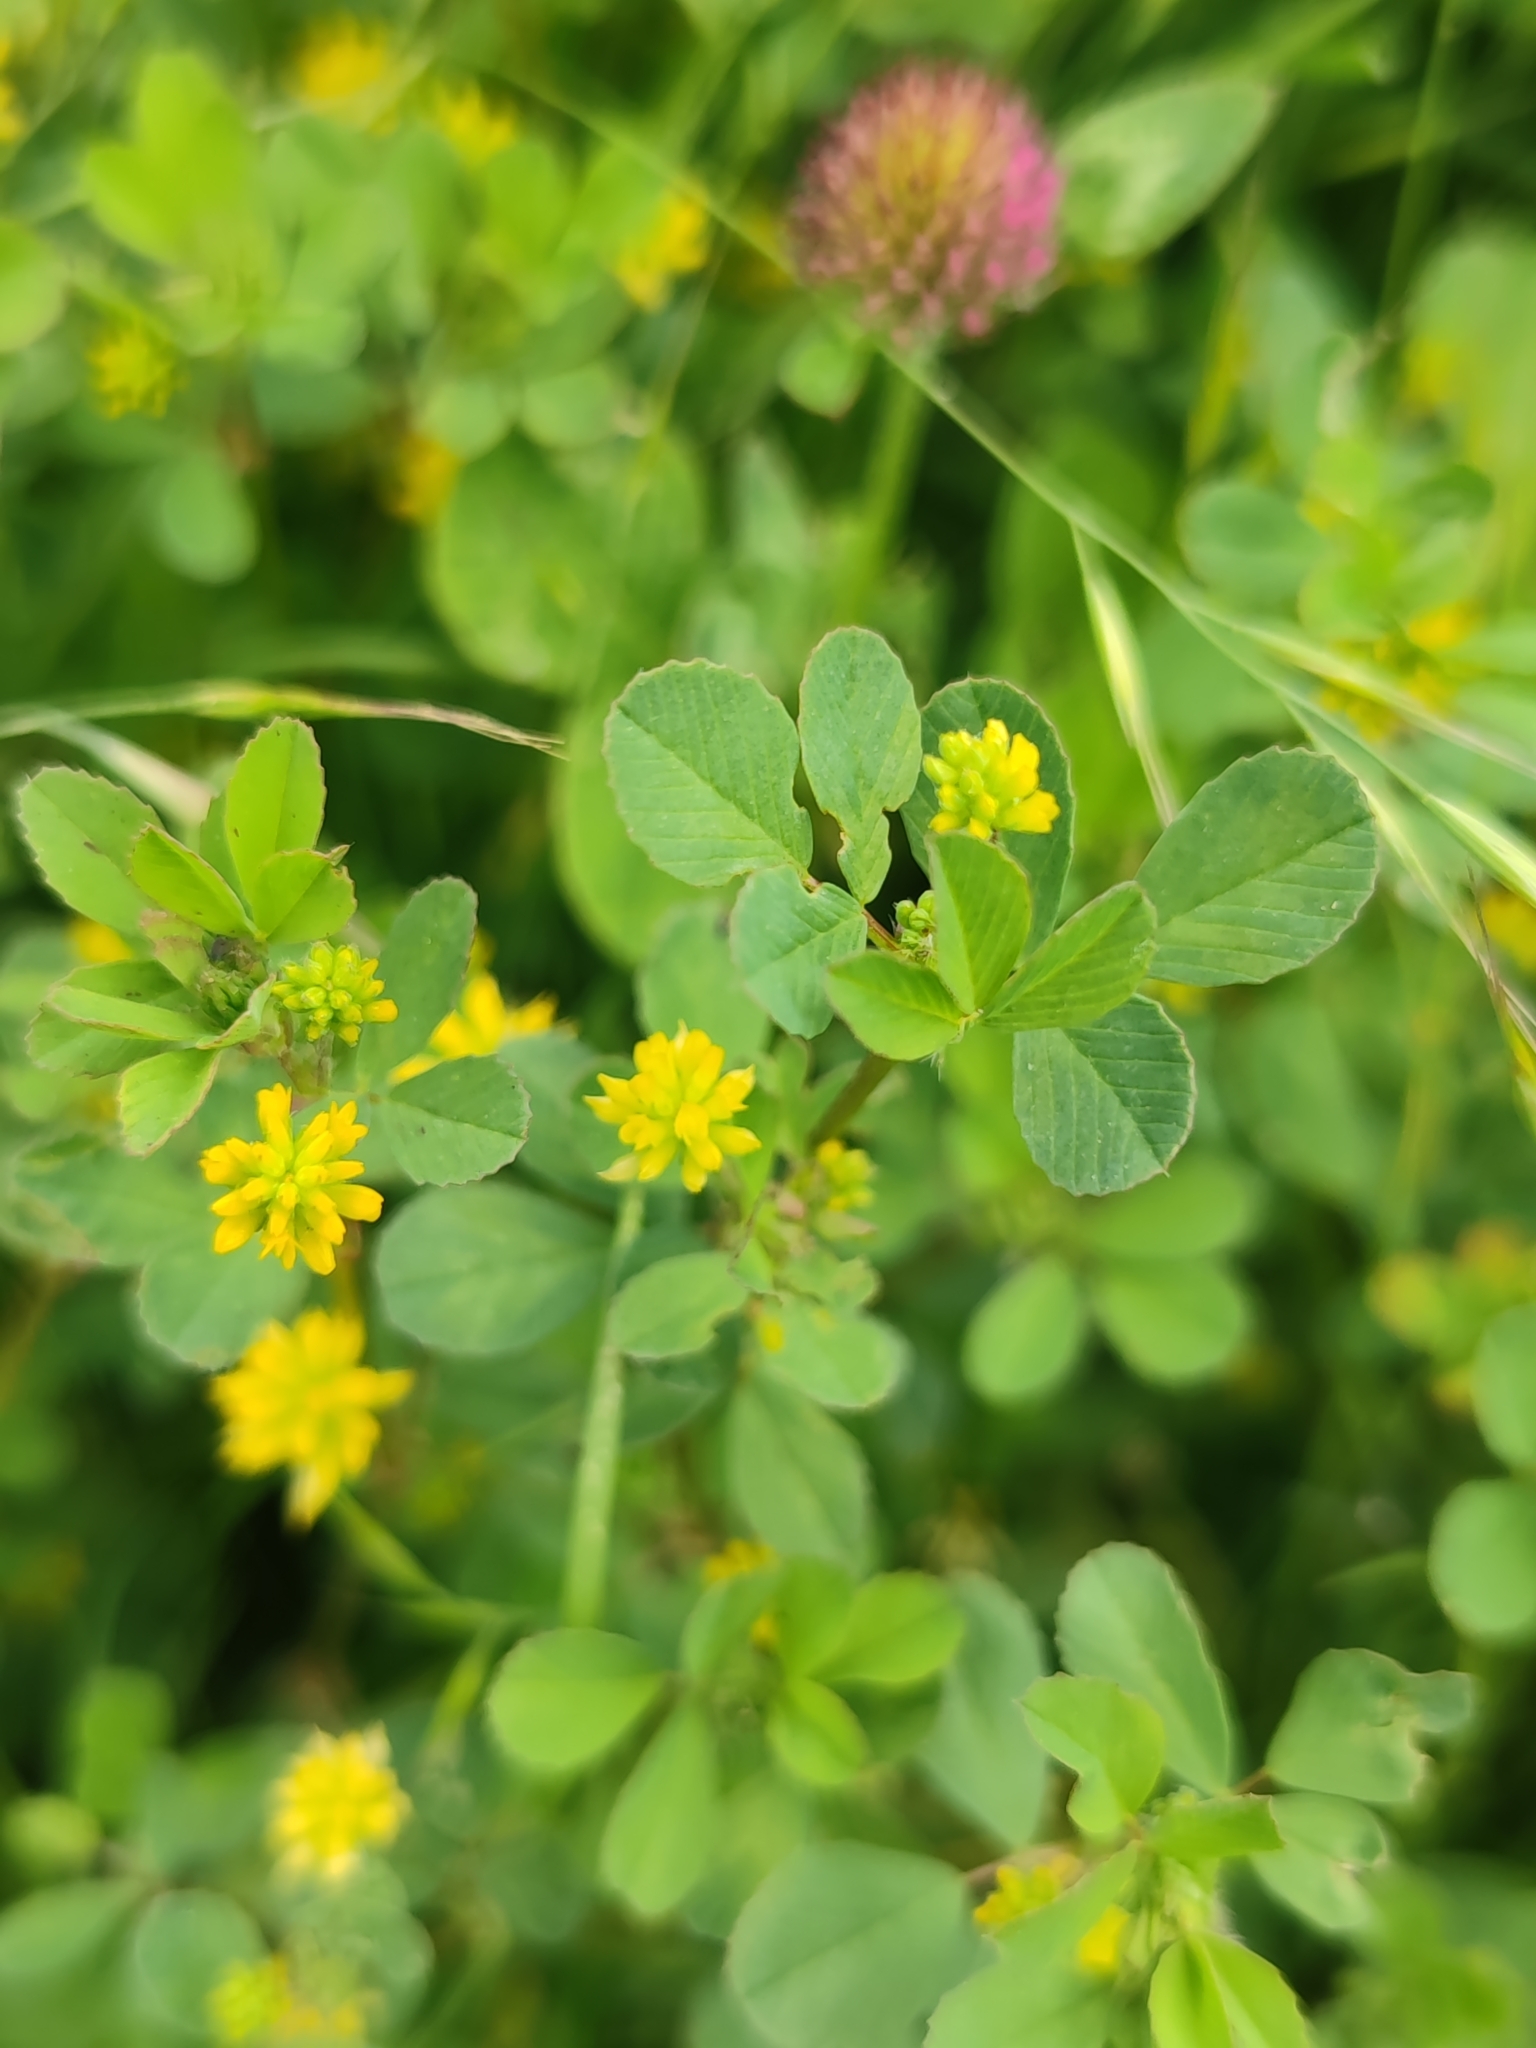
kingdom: Plantae
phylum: Tracheophyta
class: Magnoliopsida
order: Fabales
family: Fabaceae
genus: Trifolium
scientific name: Trifolium dubium
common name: Suckling clover
